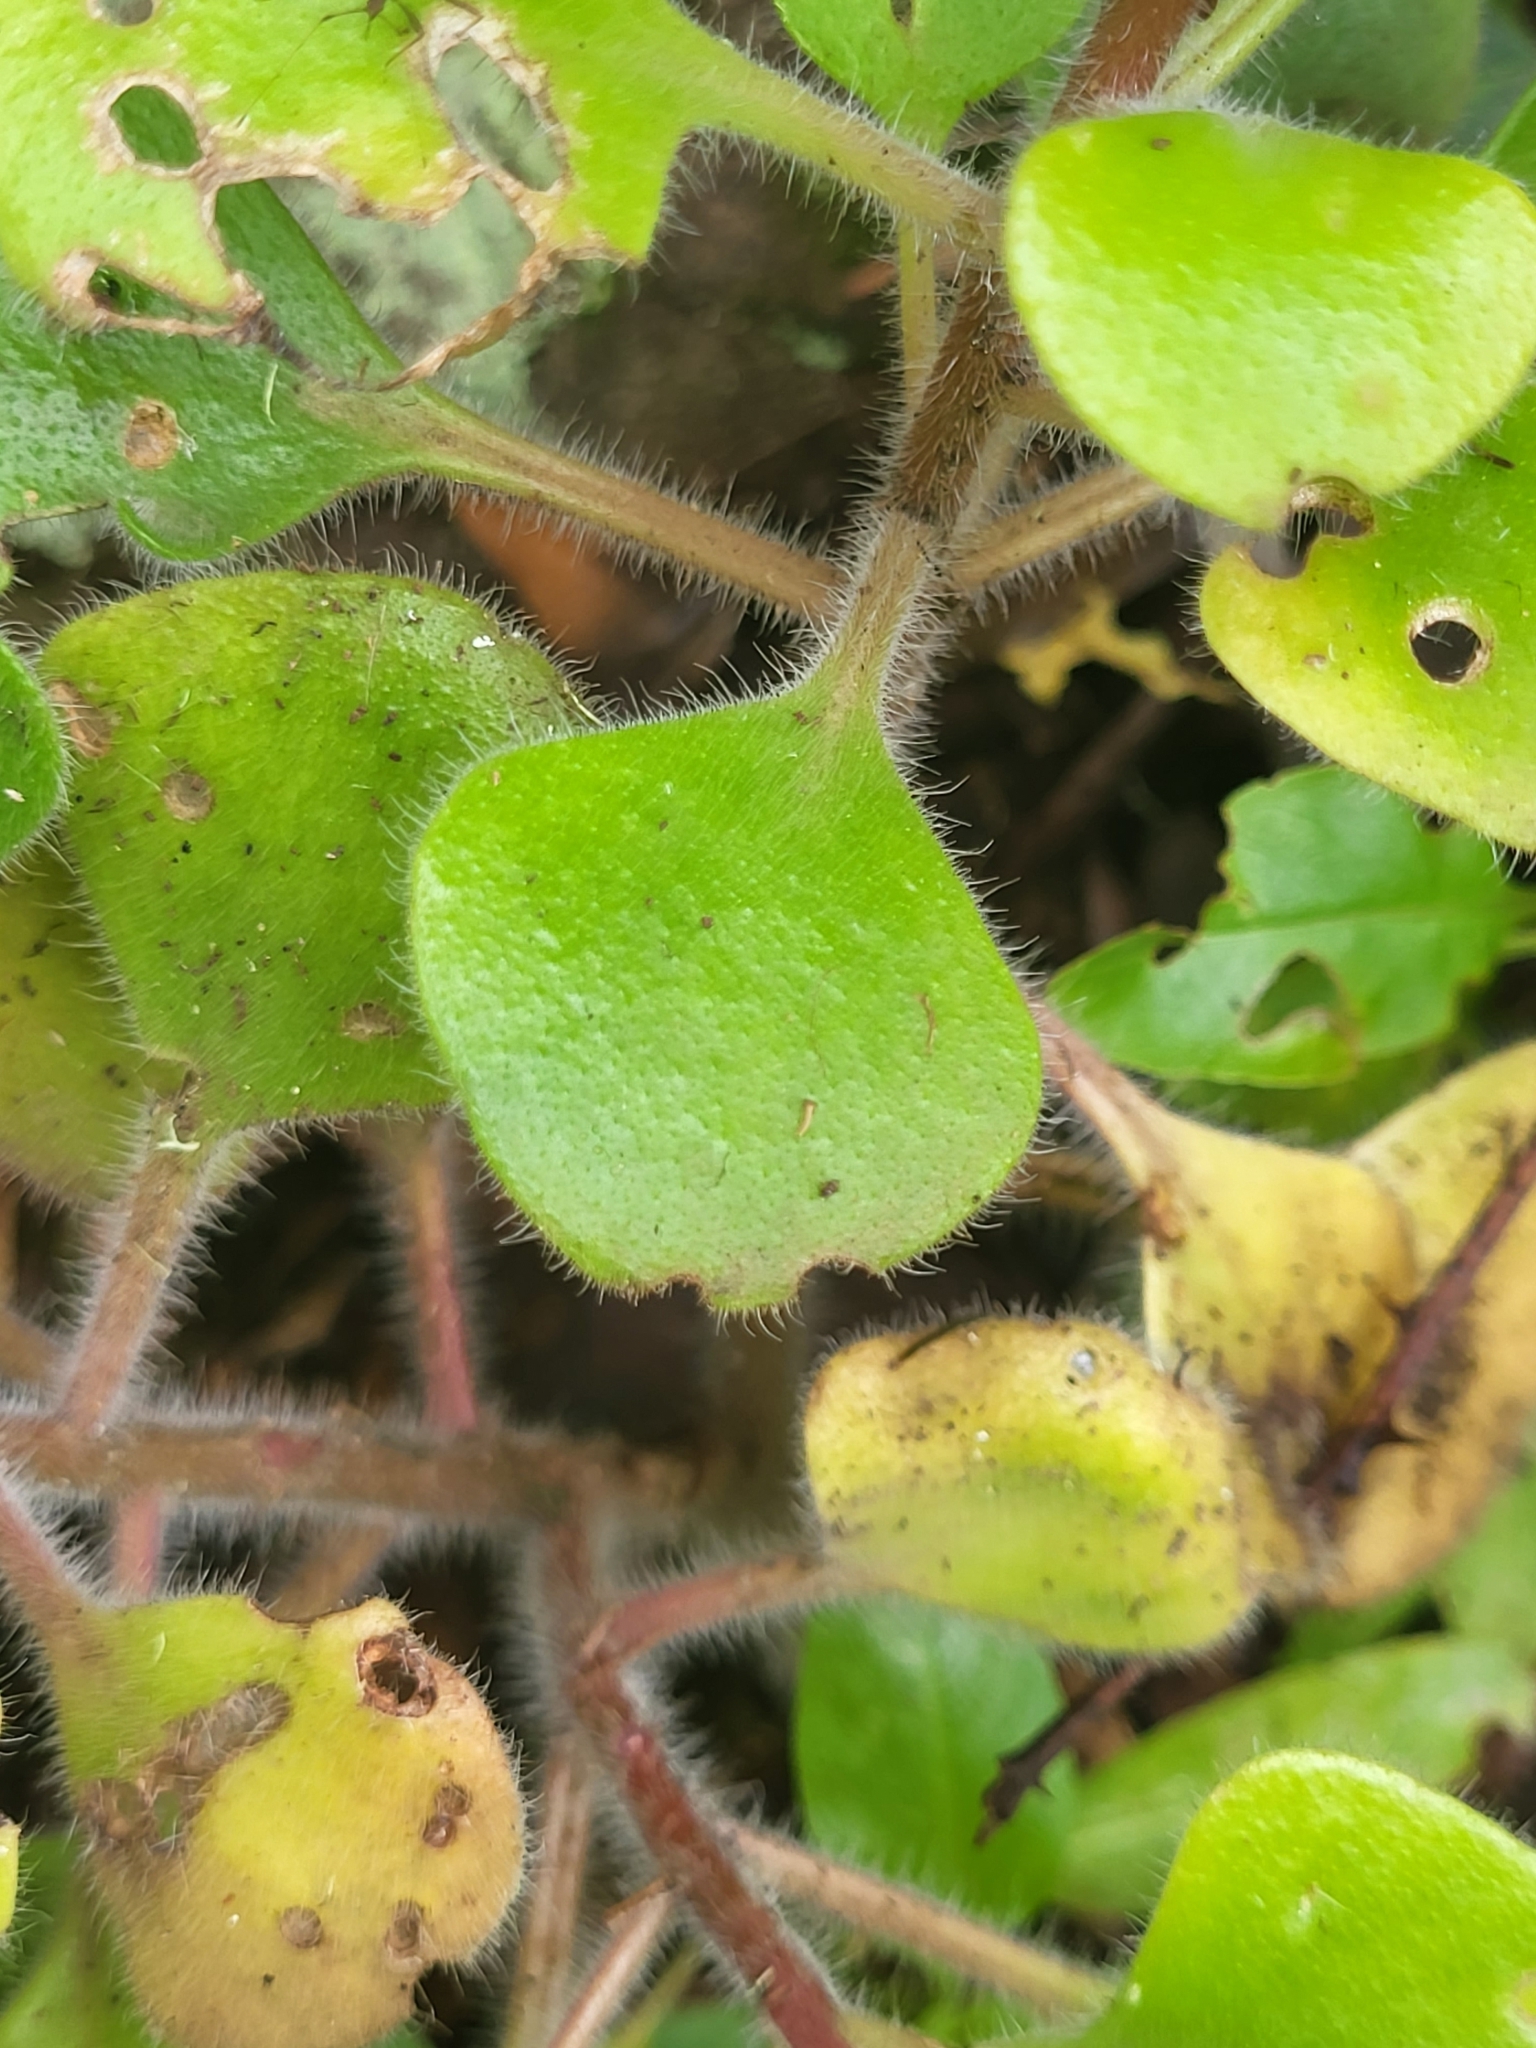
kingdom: Plantae
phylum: Tracheophyta
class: Magnoliopsida
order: Saxifragales
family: Crassulaceae
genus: Aichryson
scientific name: Aichryson laxum
